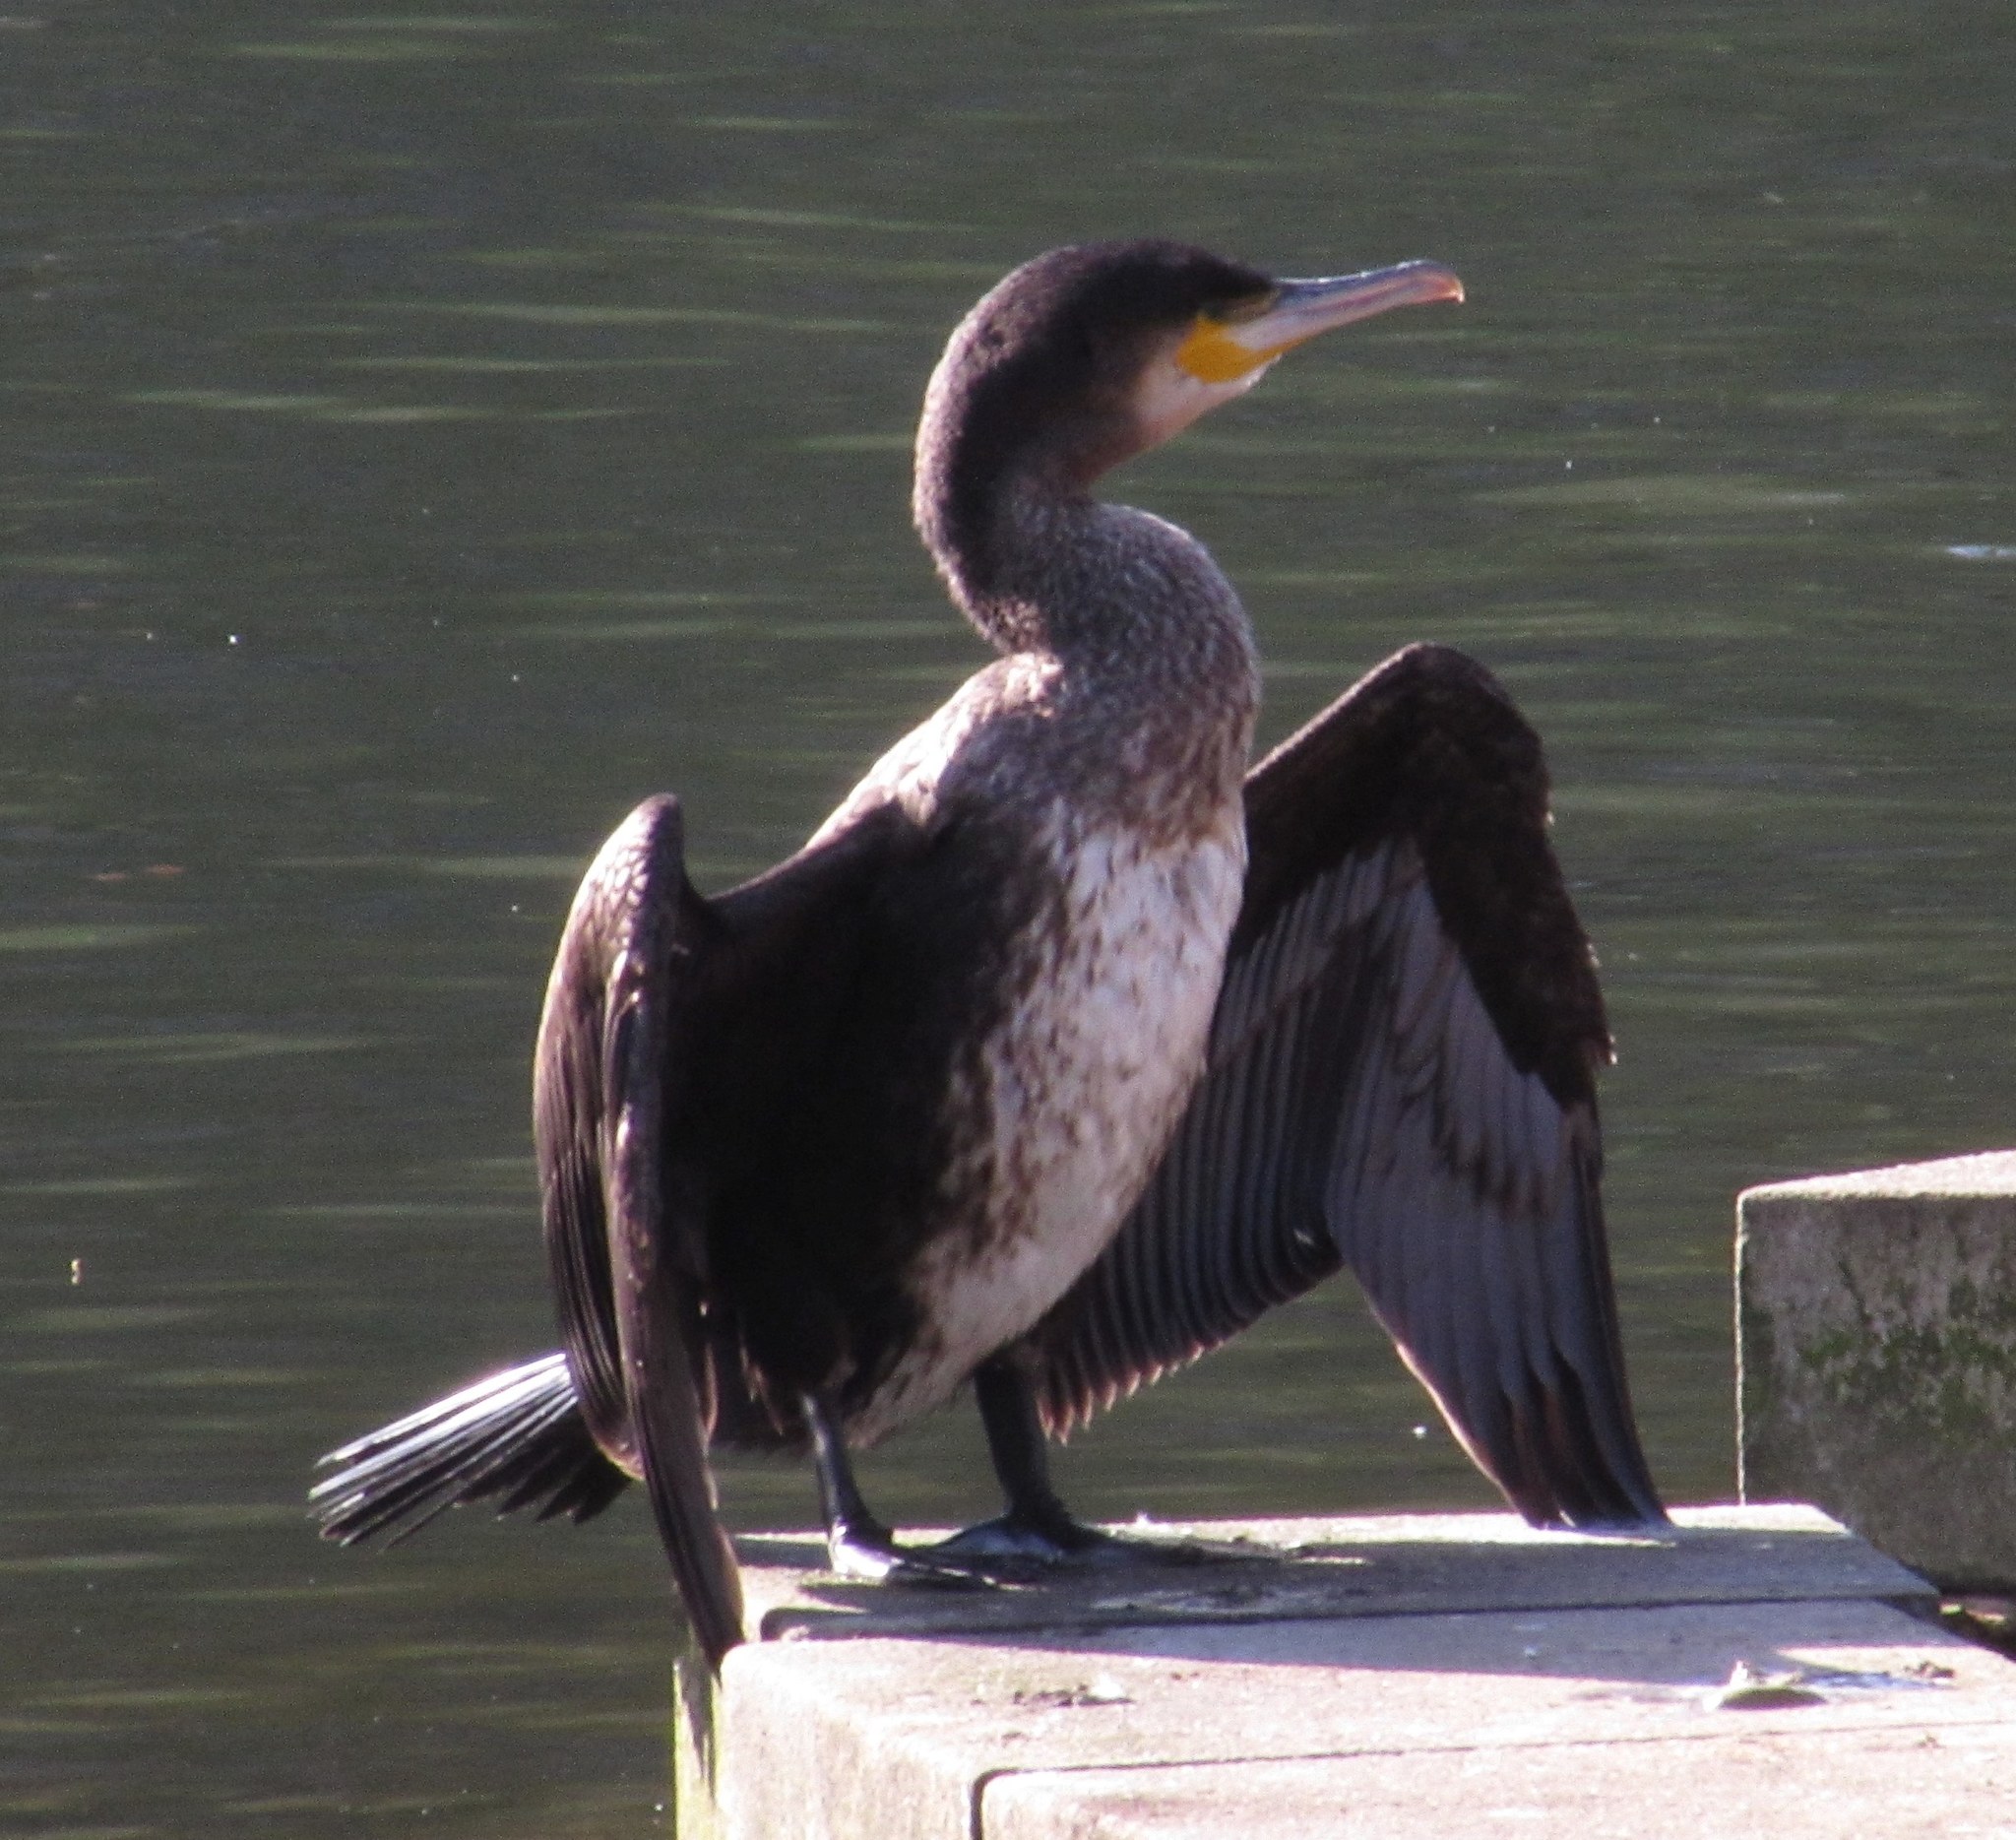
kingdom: Animalia
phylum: Chordata
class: Aves
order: Suliformes
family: Phalacrocoracidae
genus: Phalacrocorax
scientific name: Phalacrocorax carbo
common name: Great cormorant
